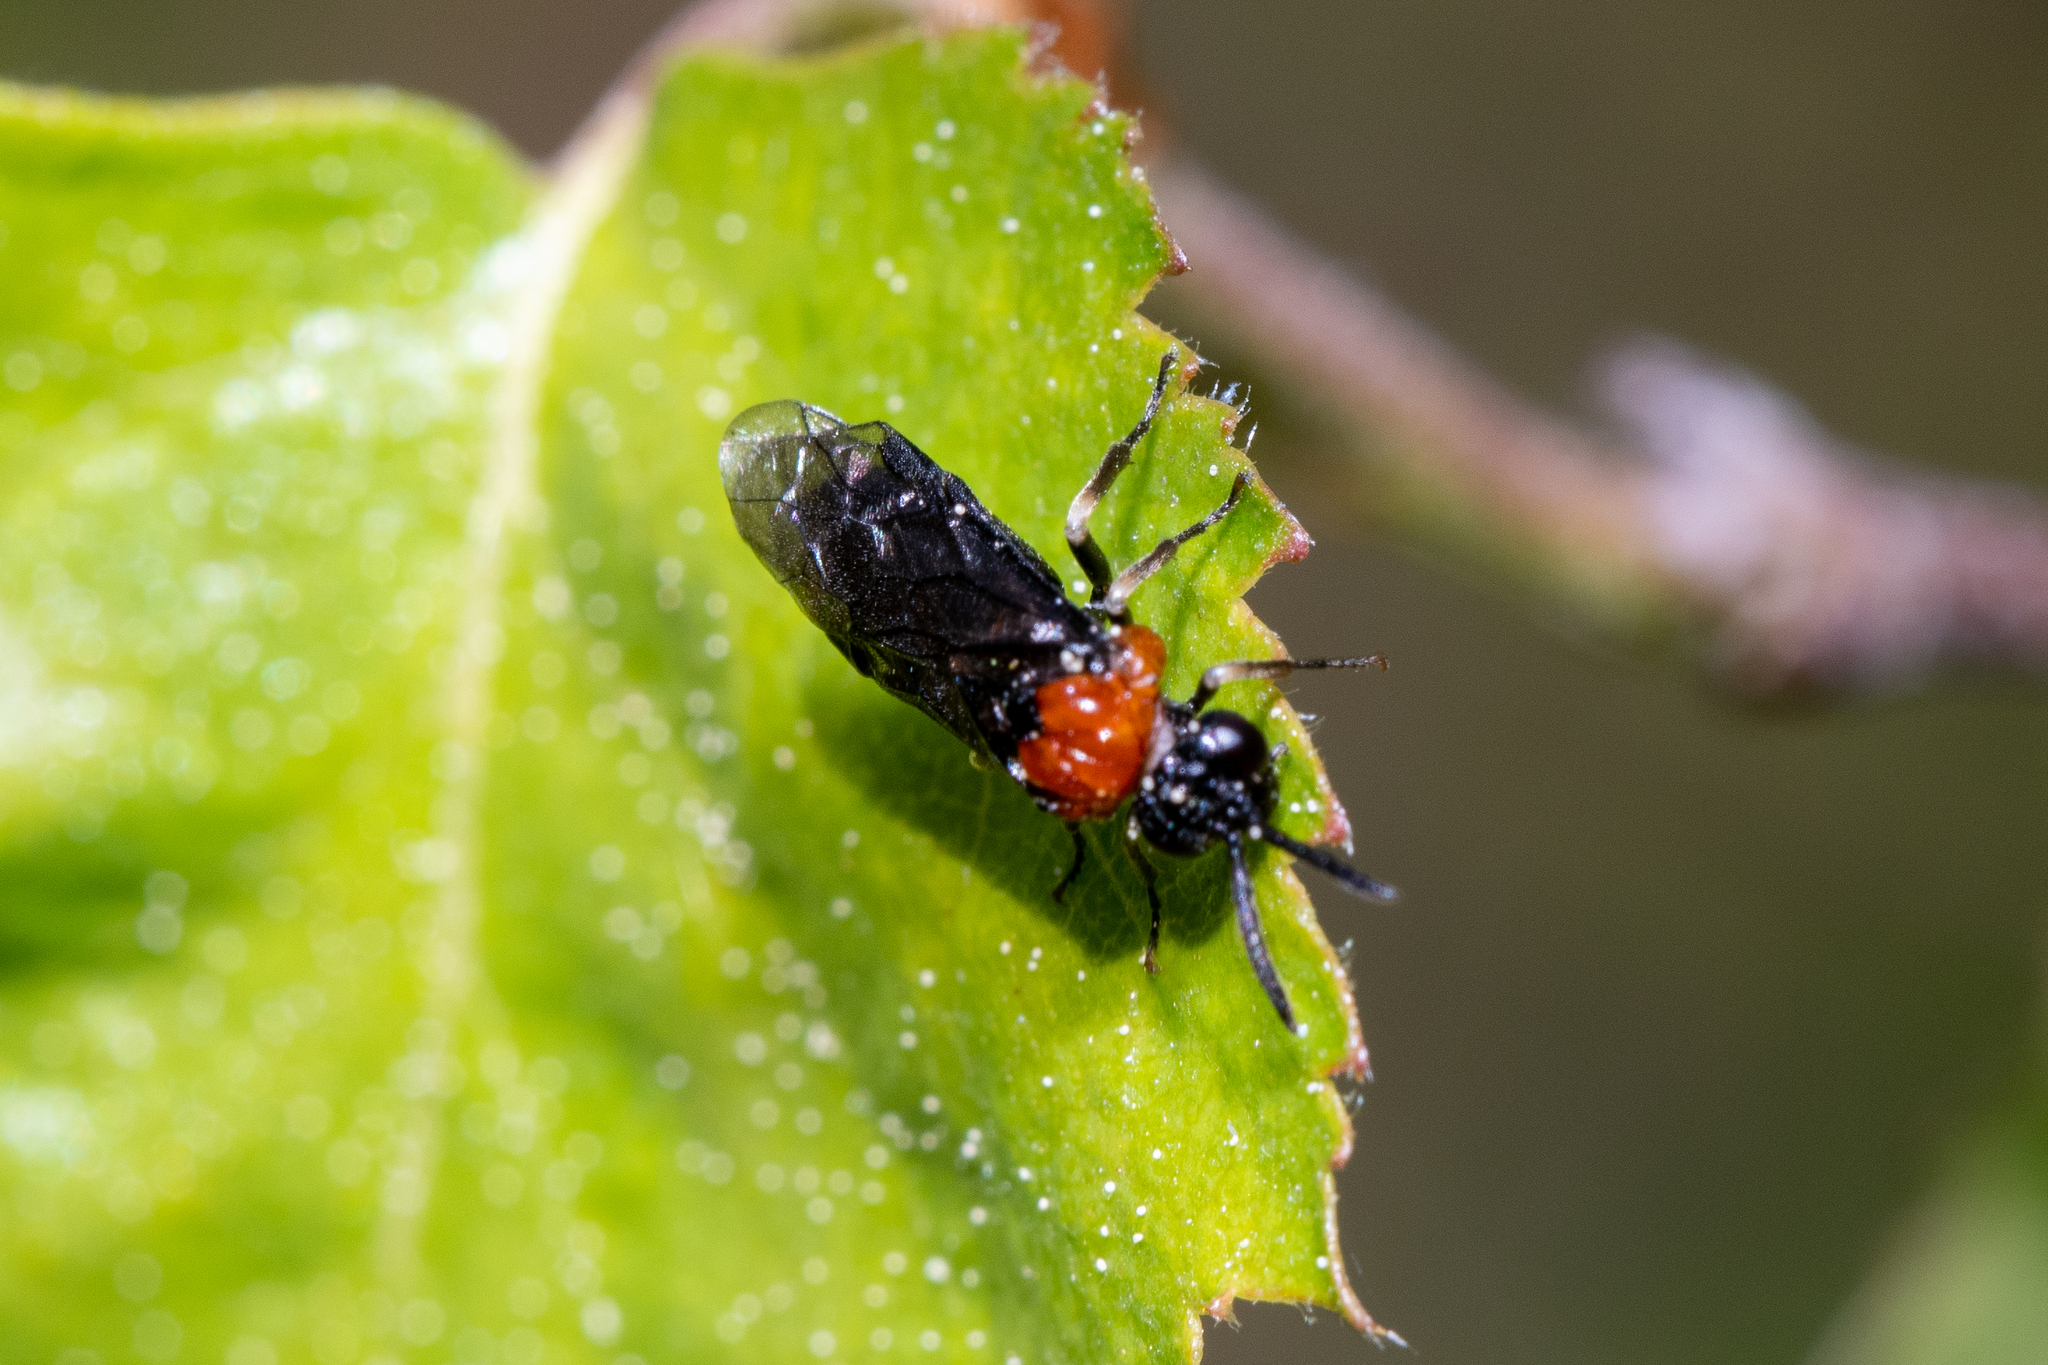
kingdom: Animalia
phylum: Arthropoda
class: Insecta
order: Hymenoptera
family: Tenthredinidae
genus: Eutomostethus
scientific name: Eutomostethus ephippium
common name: Tenthredid wasp
